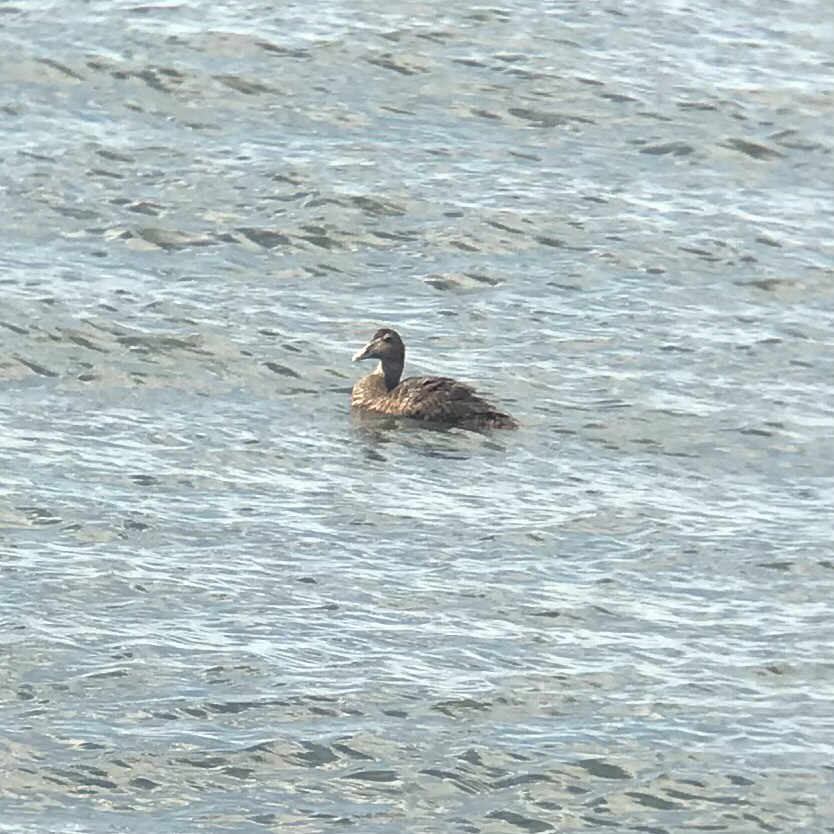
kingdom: Animalia
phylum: Chordata
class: Aves
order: Anseriformes
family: Anatidae
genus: Somateria
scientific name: Somateria mollissima
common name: Common eider
